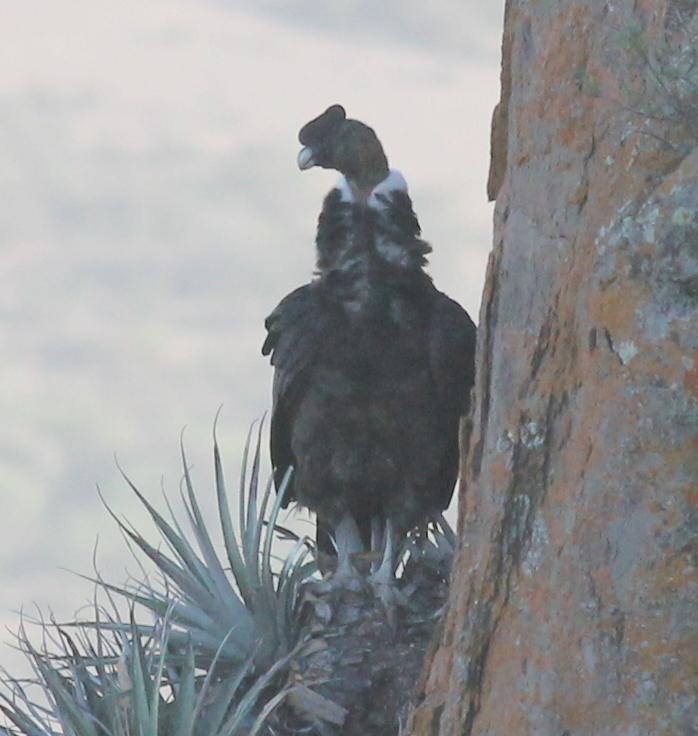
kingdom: Animalia
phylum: Chordata
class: Aves
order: Accipitriformes
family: Cathartidae
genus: Vultur
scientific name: Vultur gryphus
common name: Andean condor
